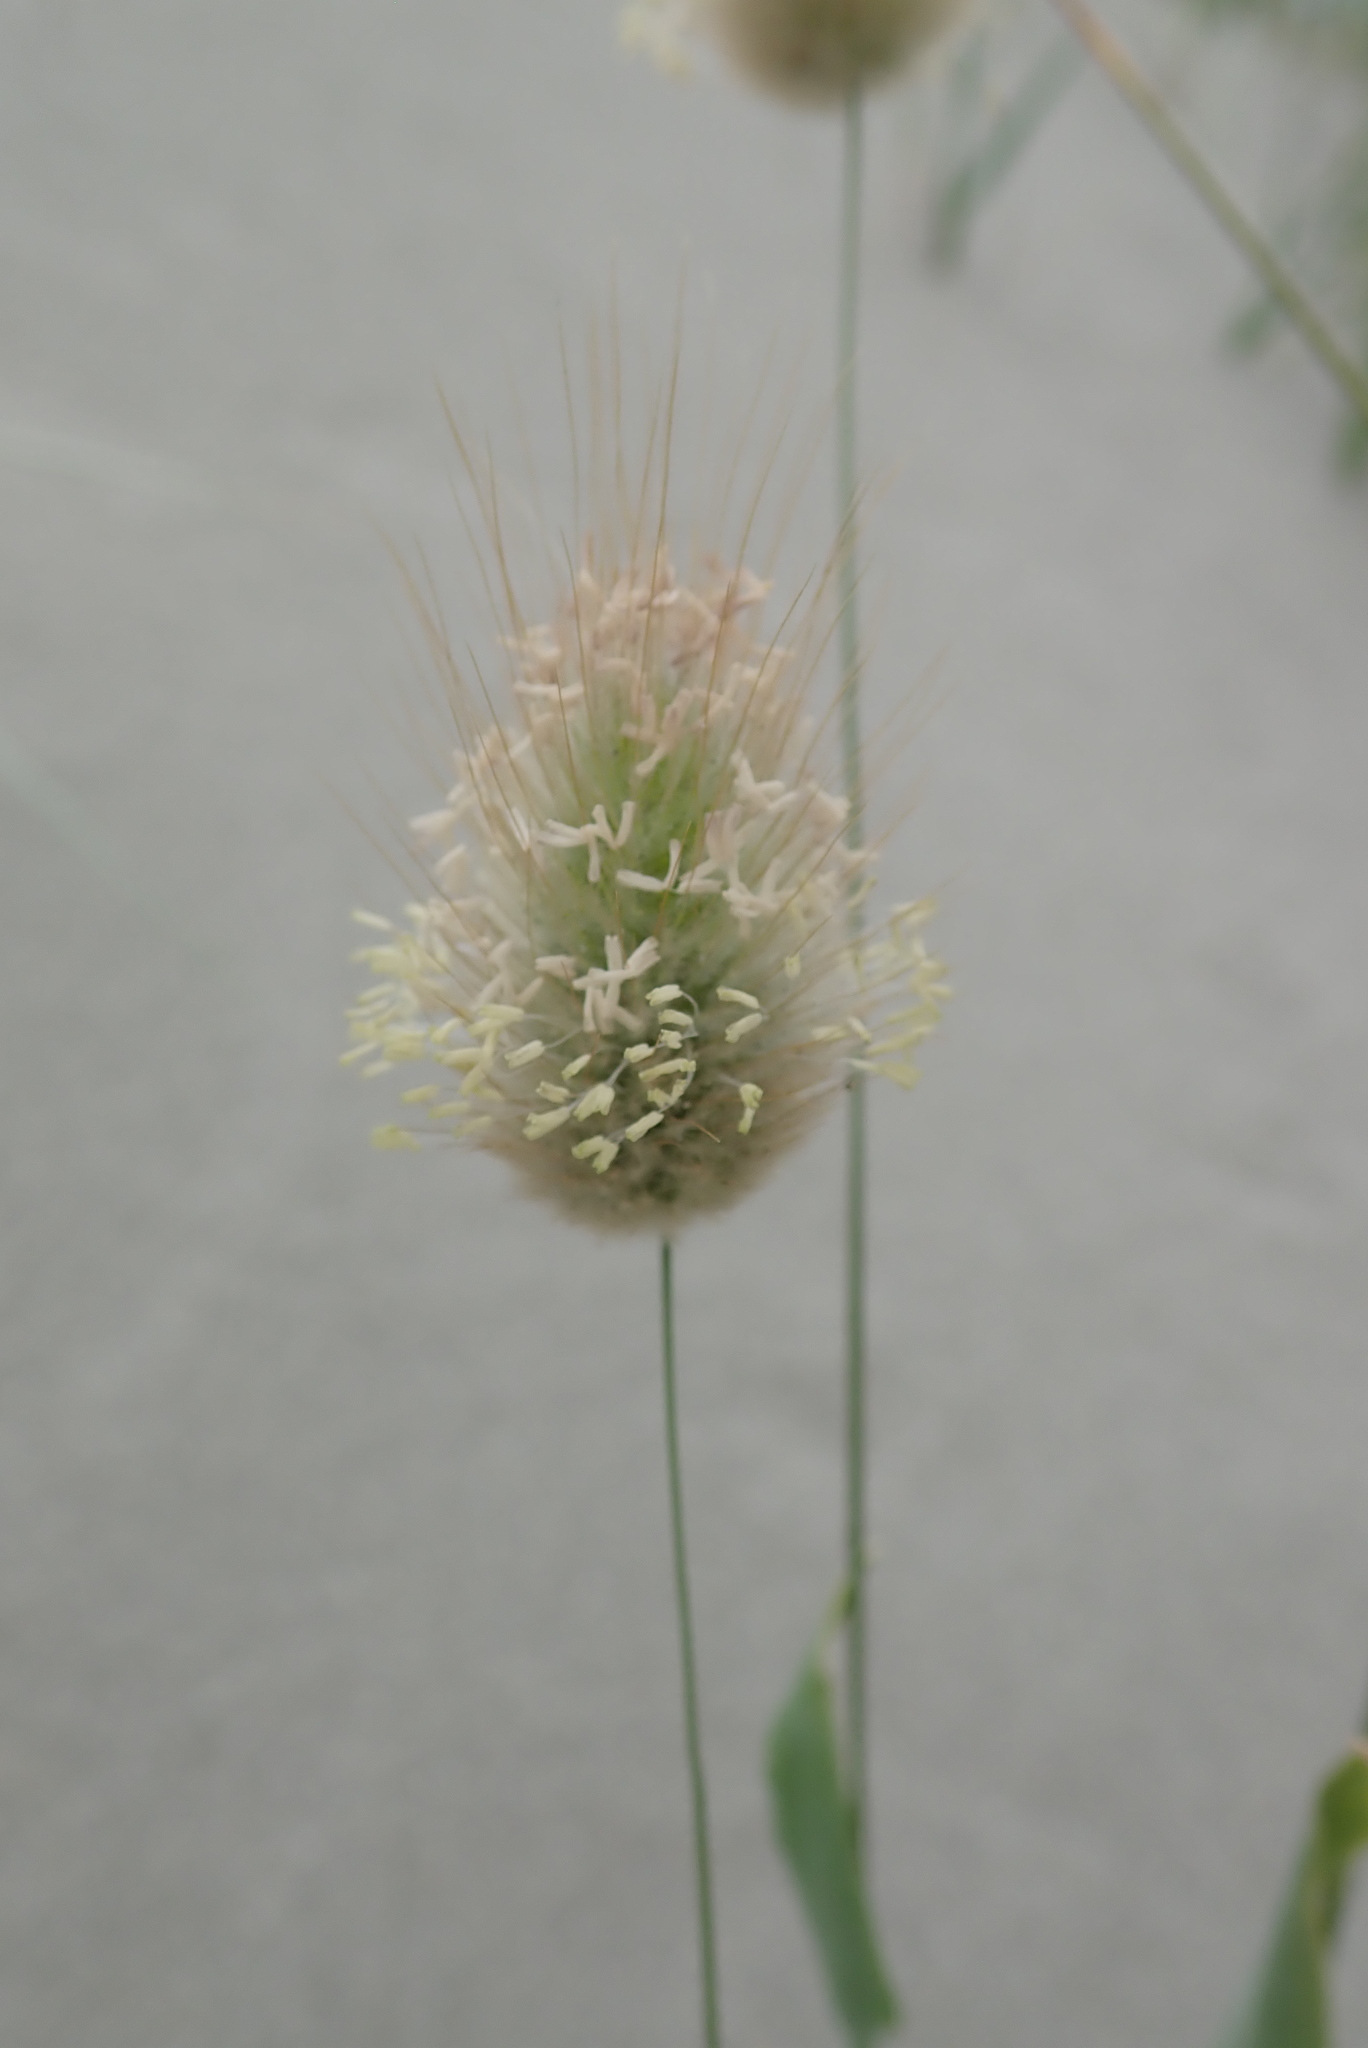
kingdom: Plantae
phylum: Tracheophyta
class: Liliopsida
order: Poales
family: Poaceae
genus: Lagurus
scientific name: Lagurus ovatus
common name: Hare's-tail
